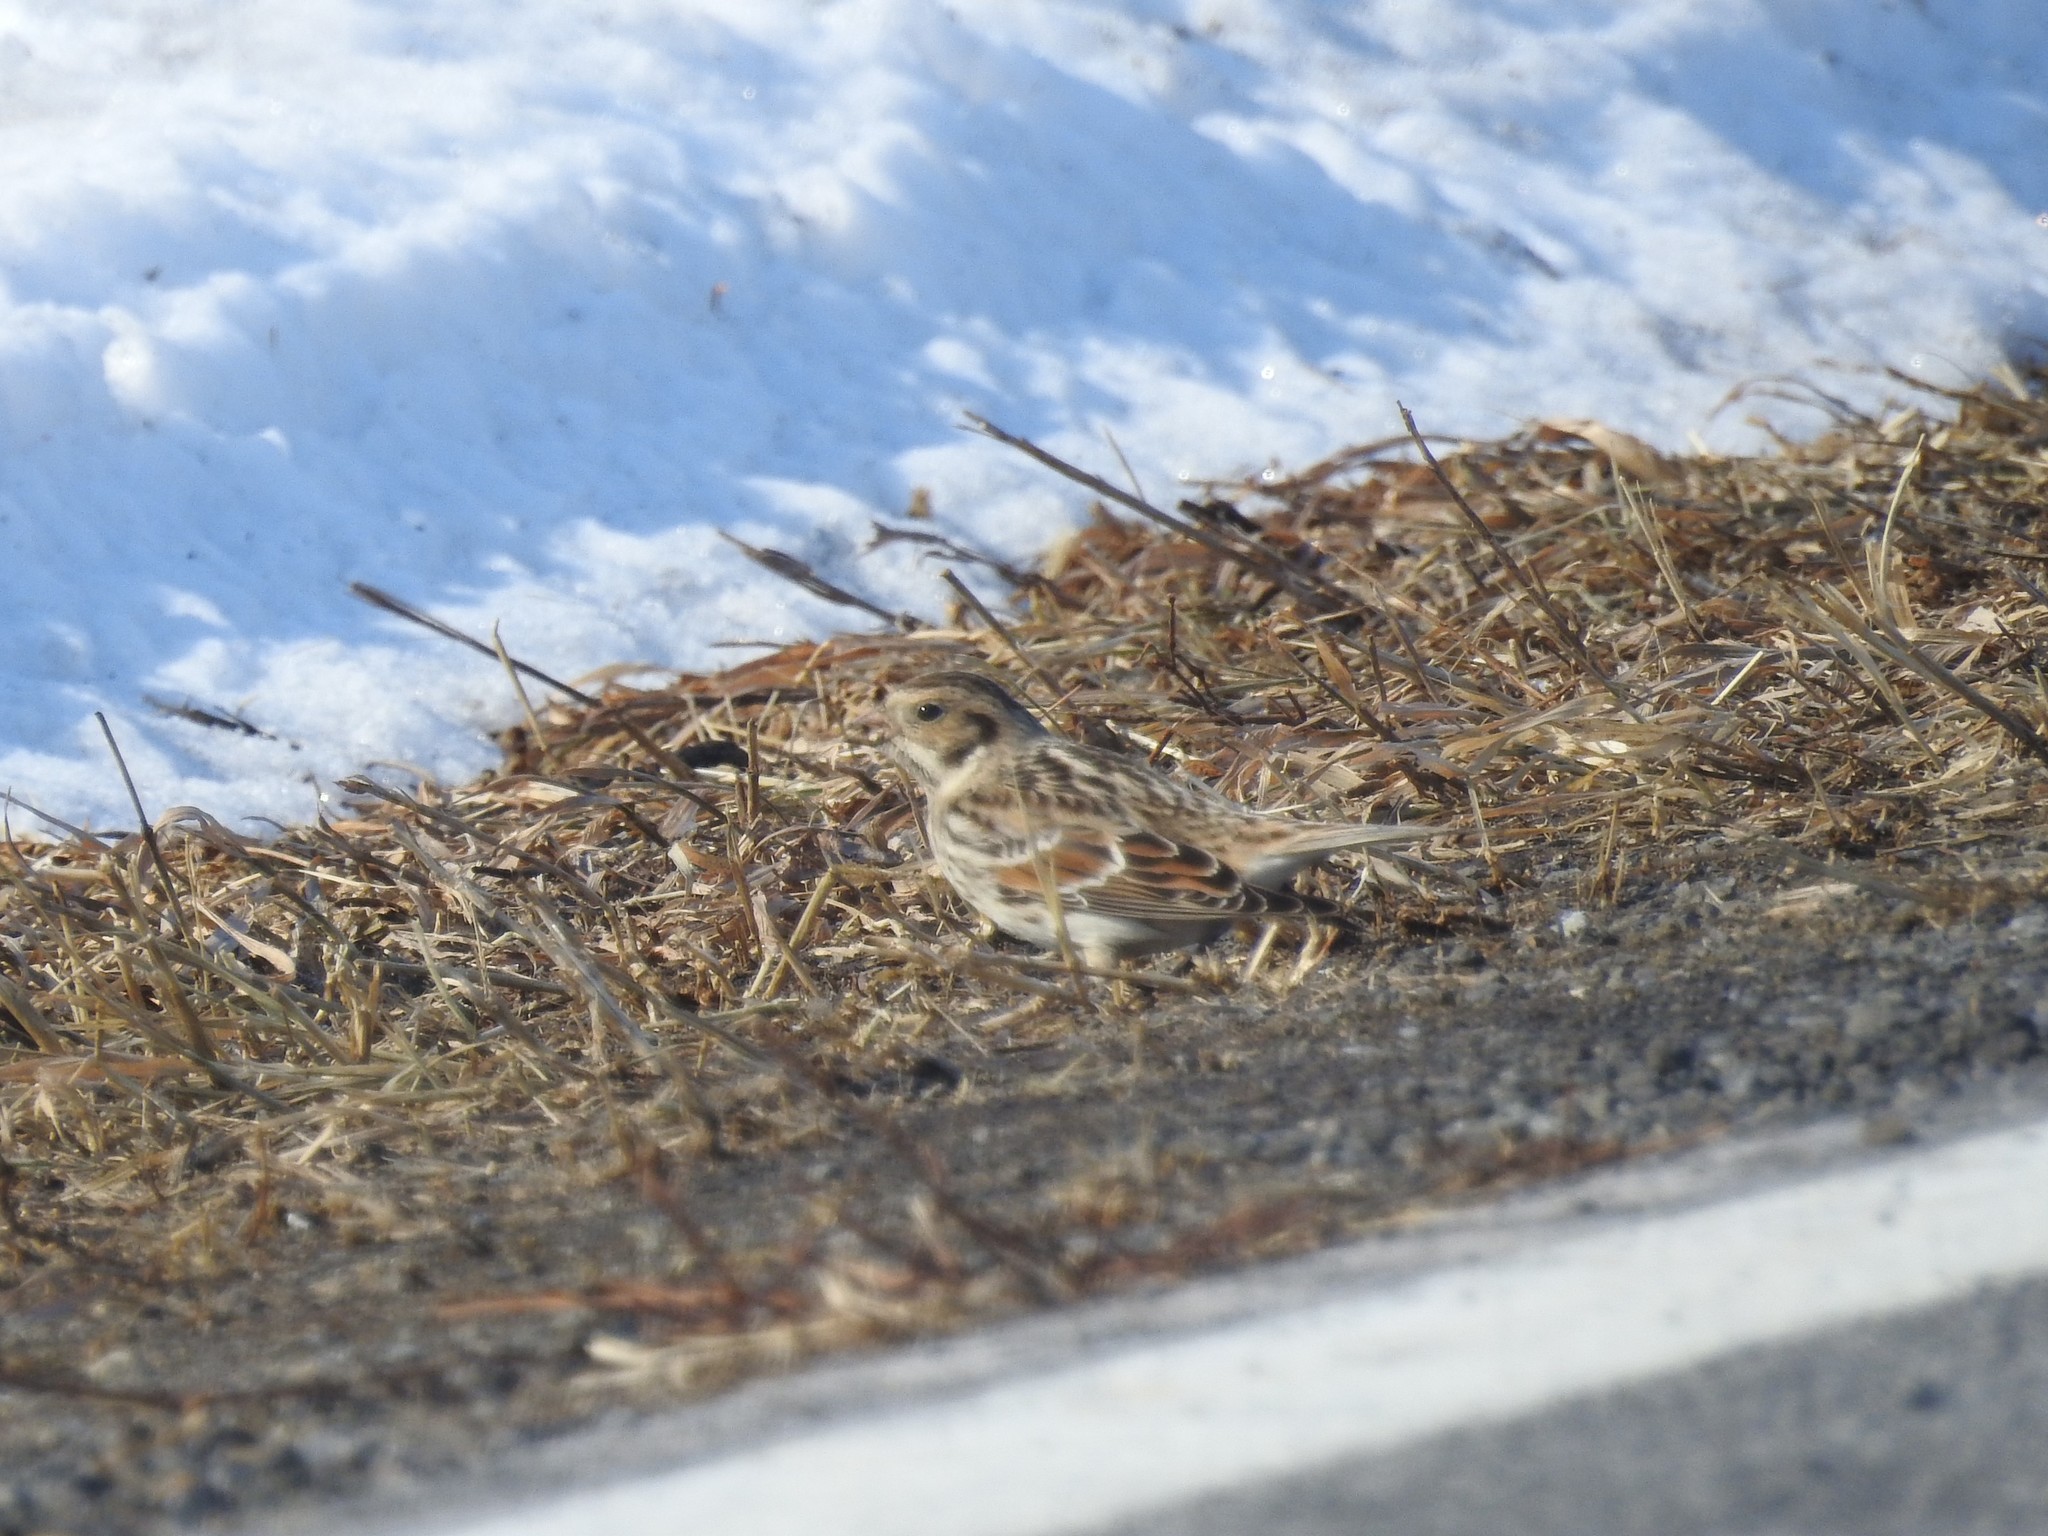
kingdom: Animalia
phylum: Chordata
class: Aves
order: Passeriformes
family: Calcariidae
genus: Calcarius
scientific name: Calcarius lapponicus
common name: Lapland longspur
